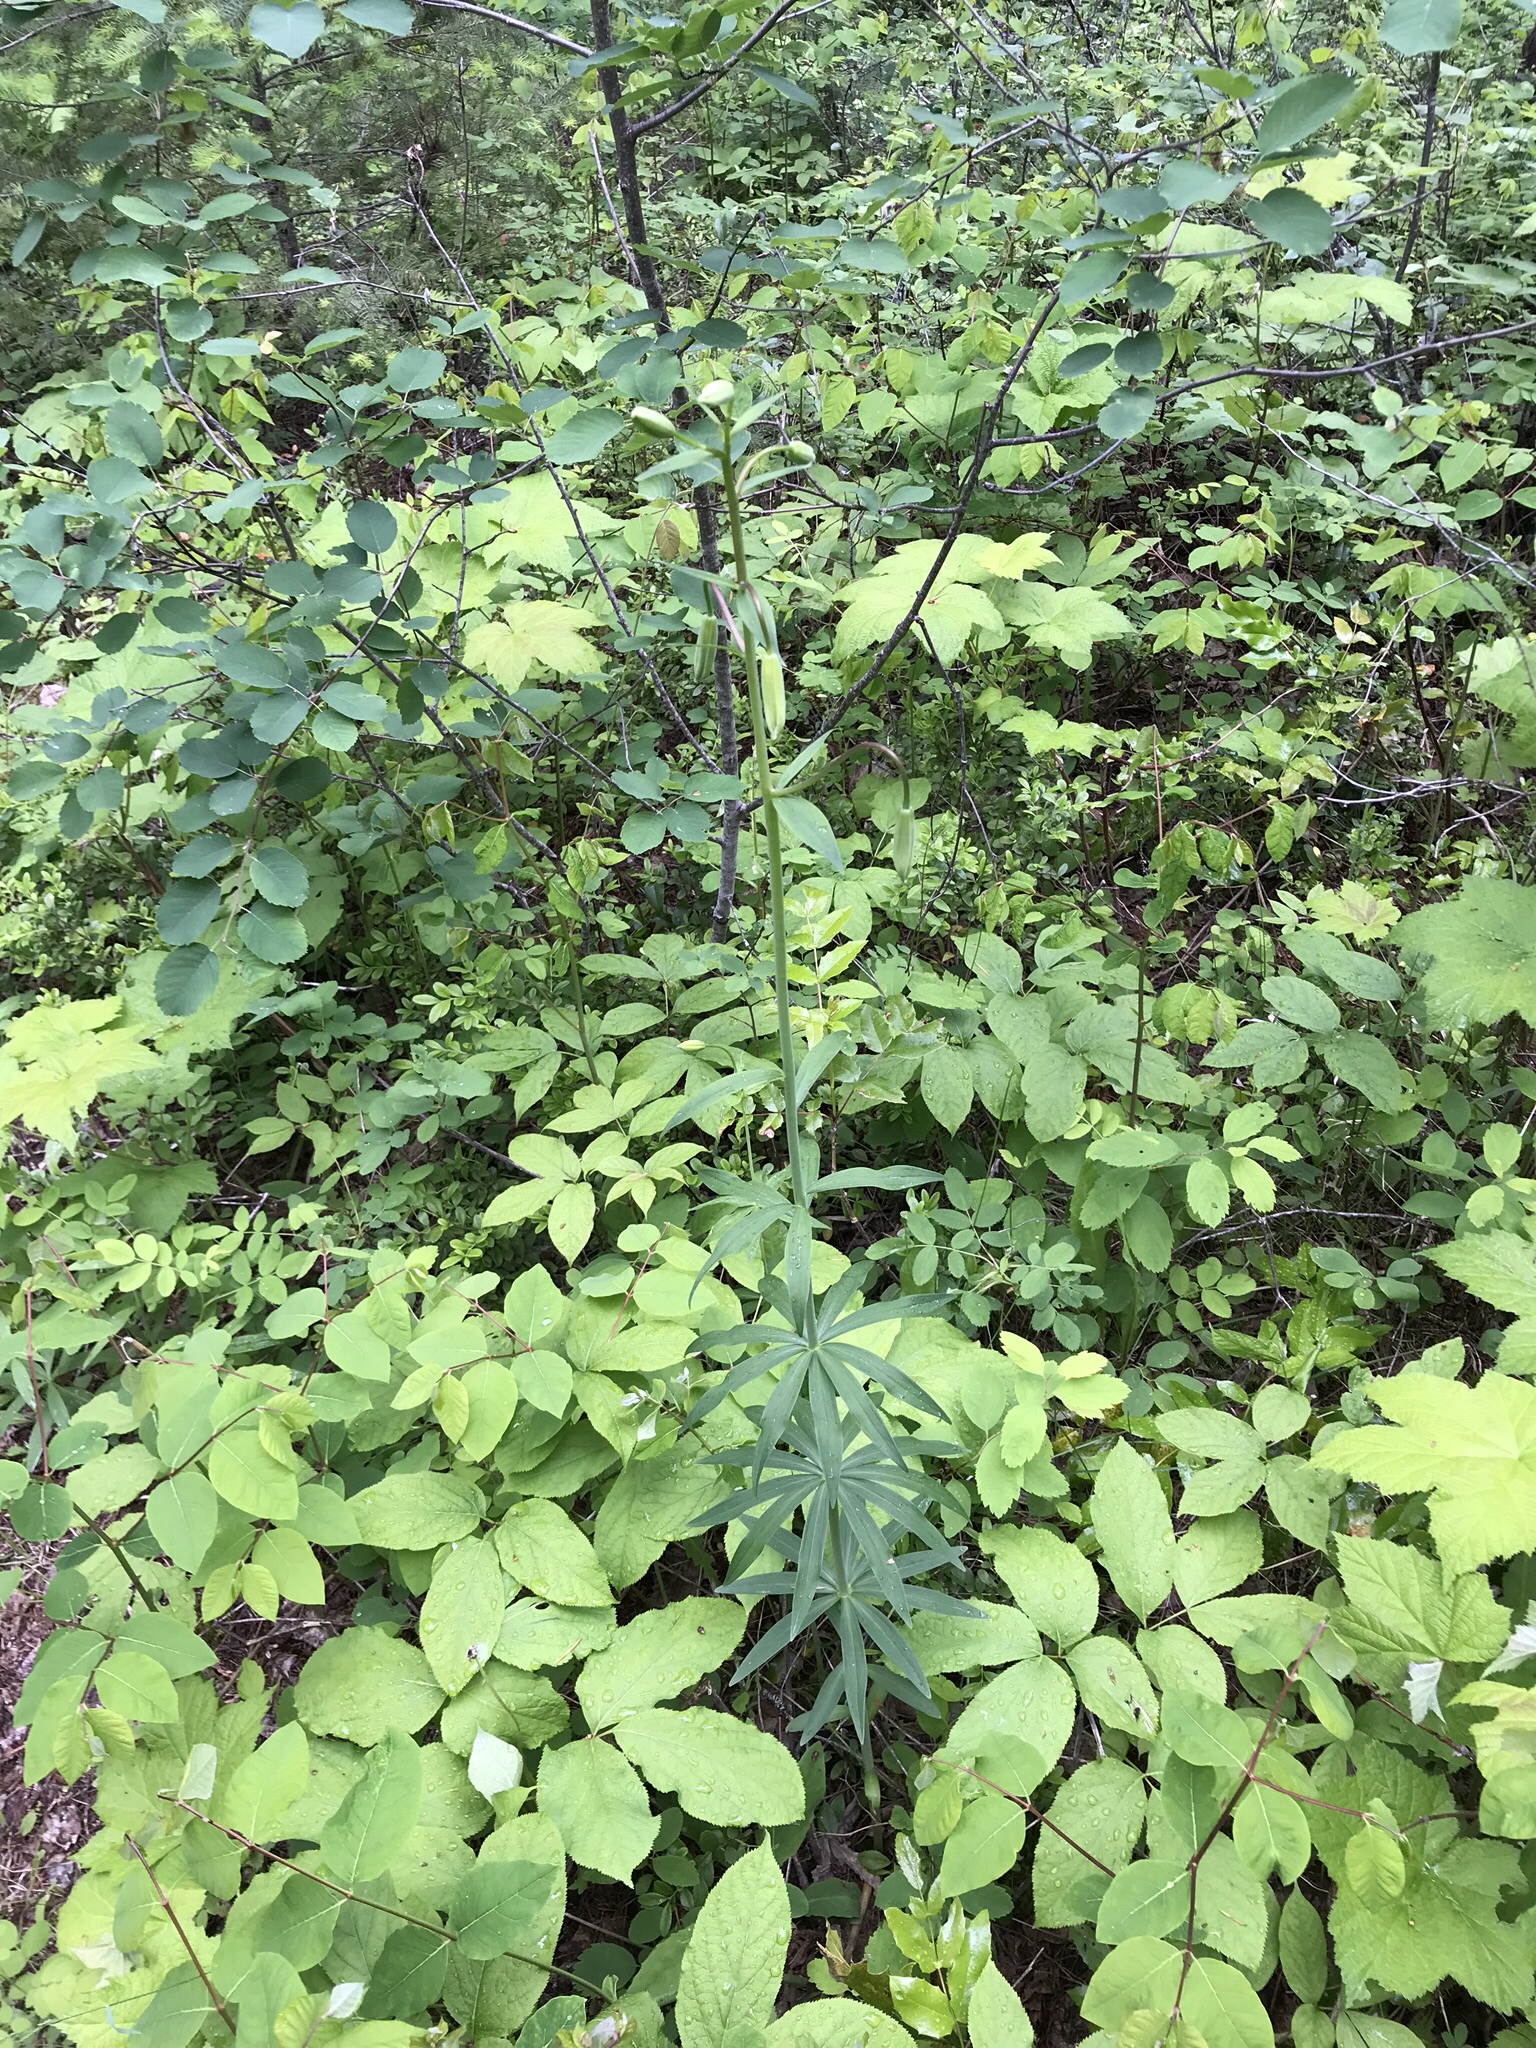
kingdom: Plantae
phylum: Tracheophyta
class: Liliopsida
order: Liliales
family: Liliaceae
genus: Lilium
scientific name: Lilium columbianum
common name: Columbia lily
